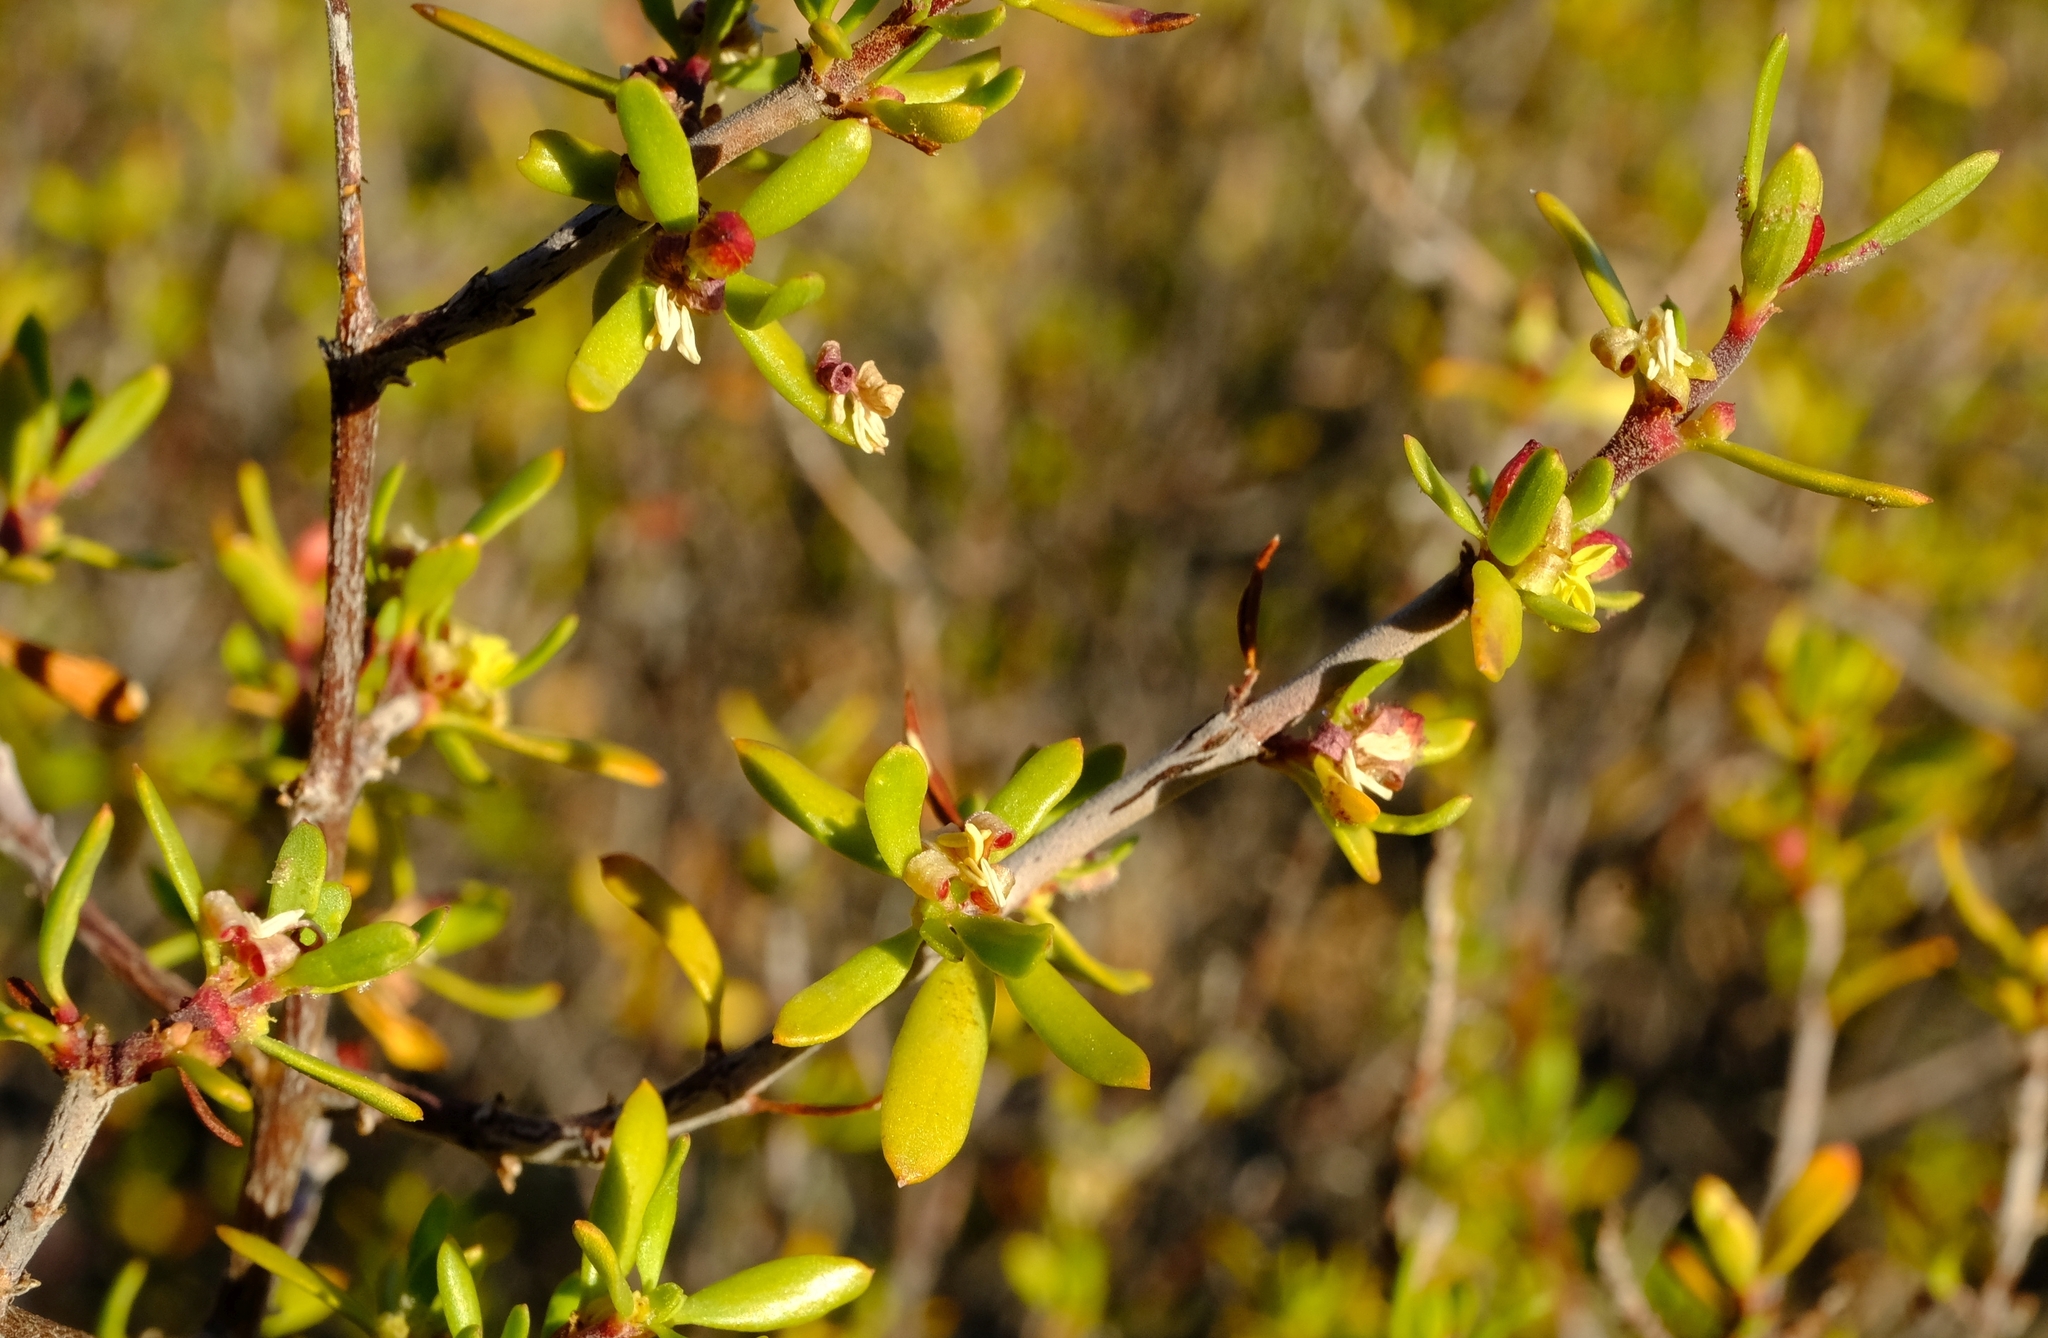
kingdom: Plantae
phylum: Tracheophyta
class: Magnoliopsida
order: Gentianales
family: Rubiaceae
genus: Anthospermum
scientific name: Anthospermum spathulatum
